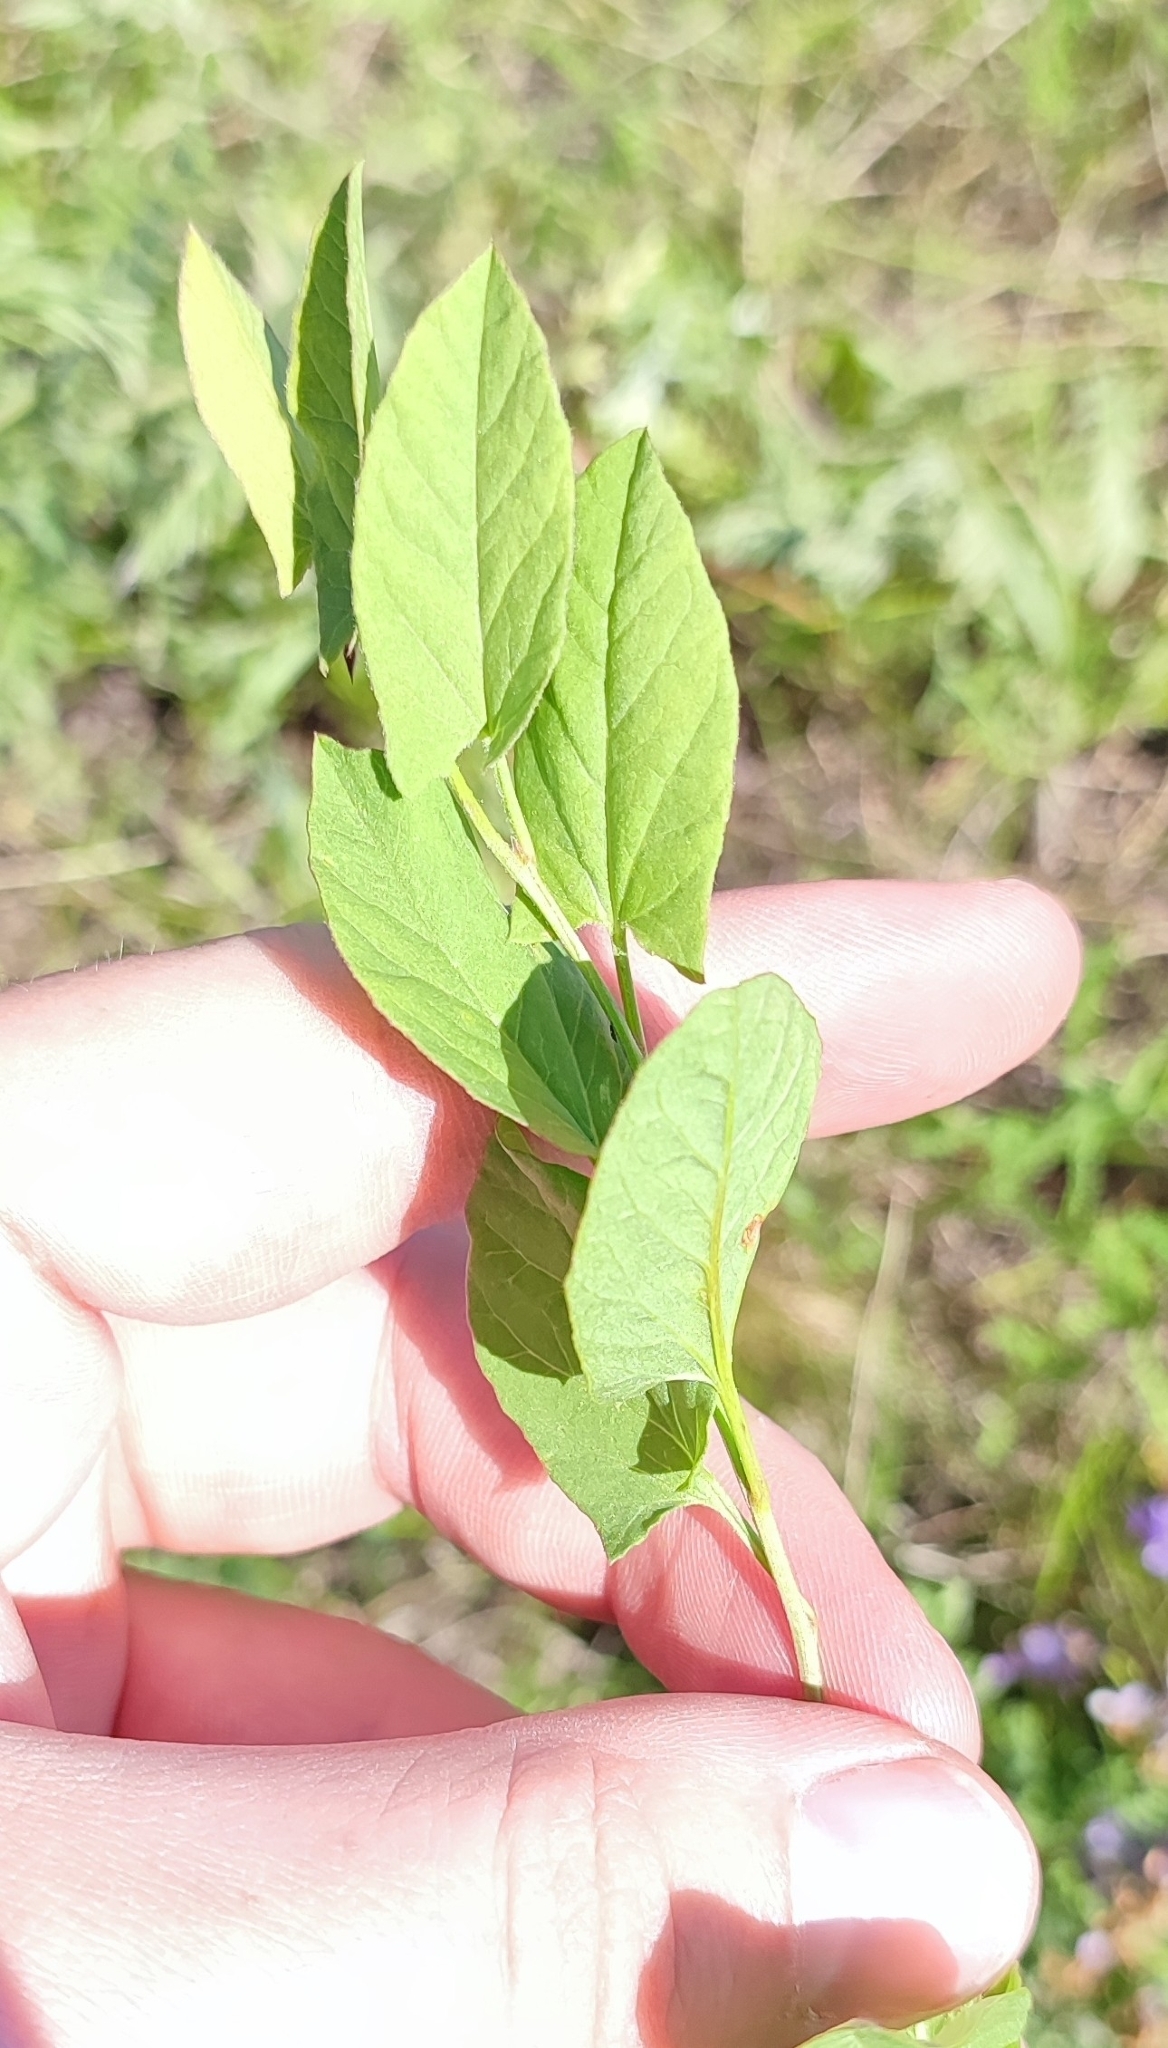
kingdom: Plantae
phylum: Tracheophyta
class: Magnoliopsida
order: Solanales
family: Convolvulaceae
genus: Convolvulus
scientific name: Convolvulus arvensis
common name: Field bindweed
